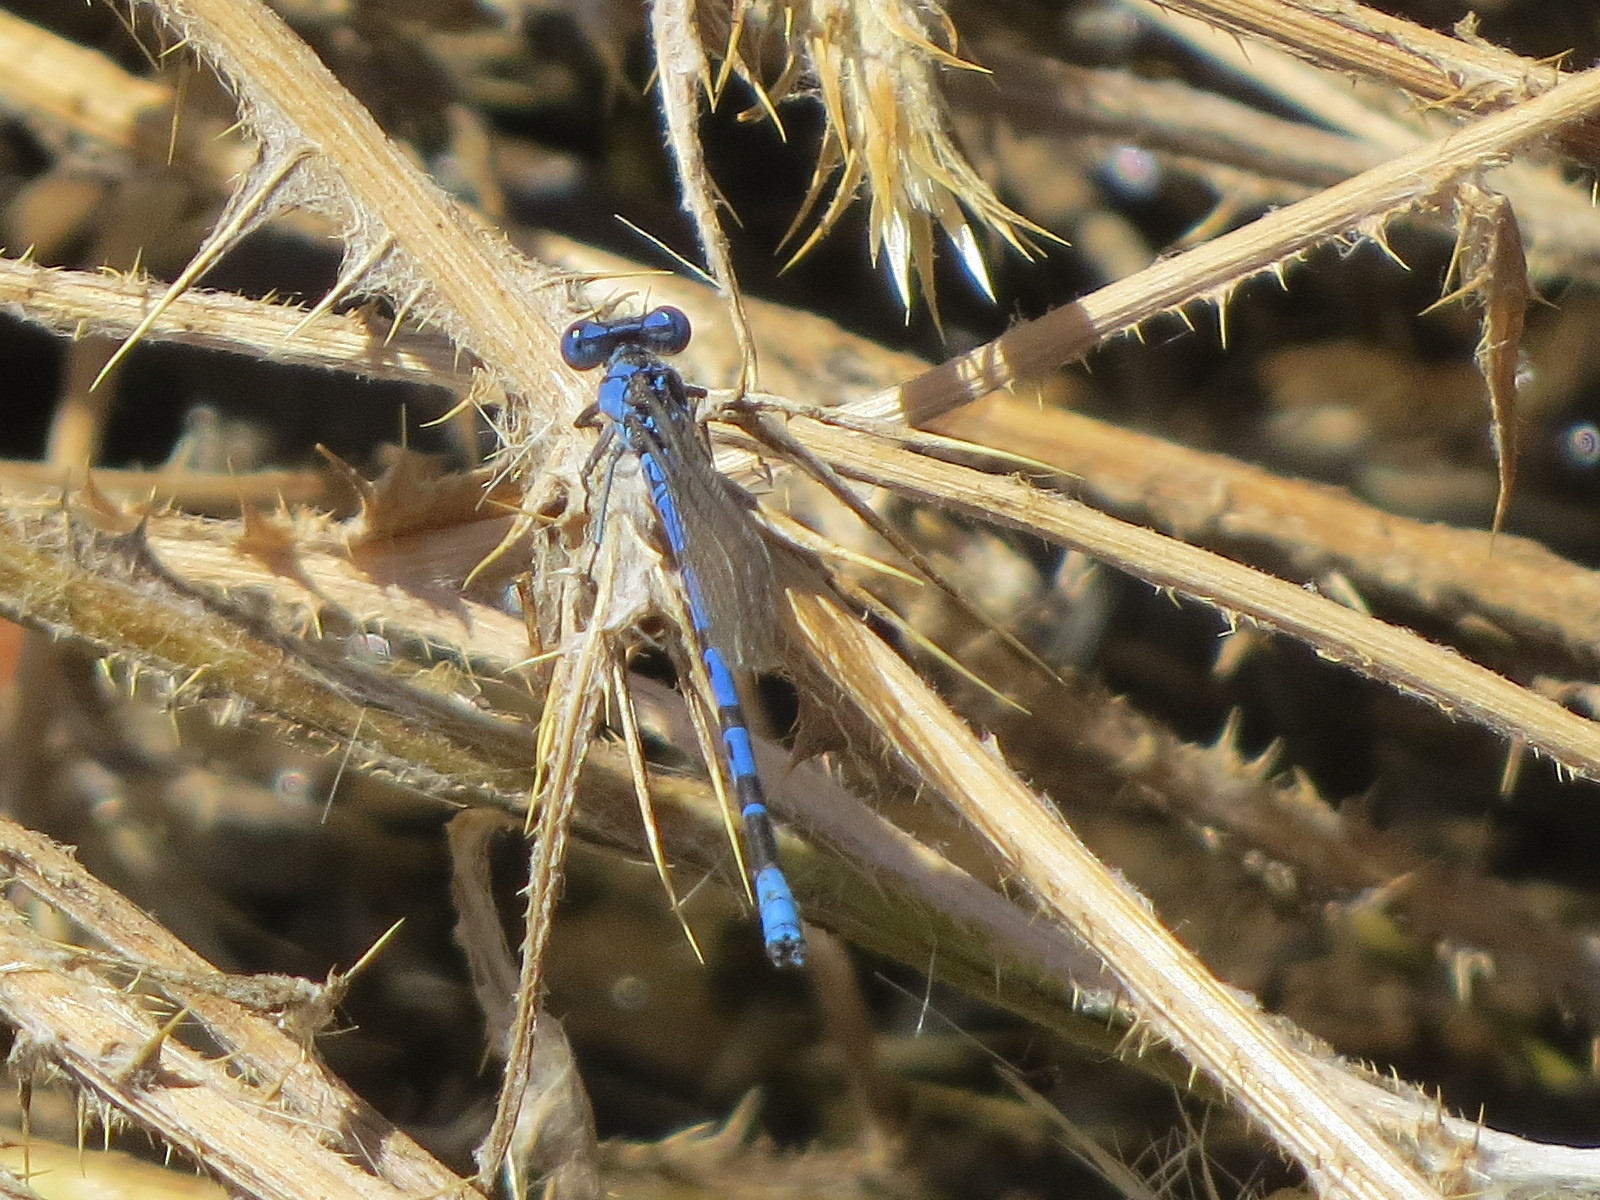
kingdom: Animalia
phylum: Arthropoda
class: Insecta
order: Odonata
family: Coenagrionidae
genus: Argia
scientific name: Argia vivida
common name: Vivid dancer
